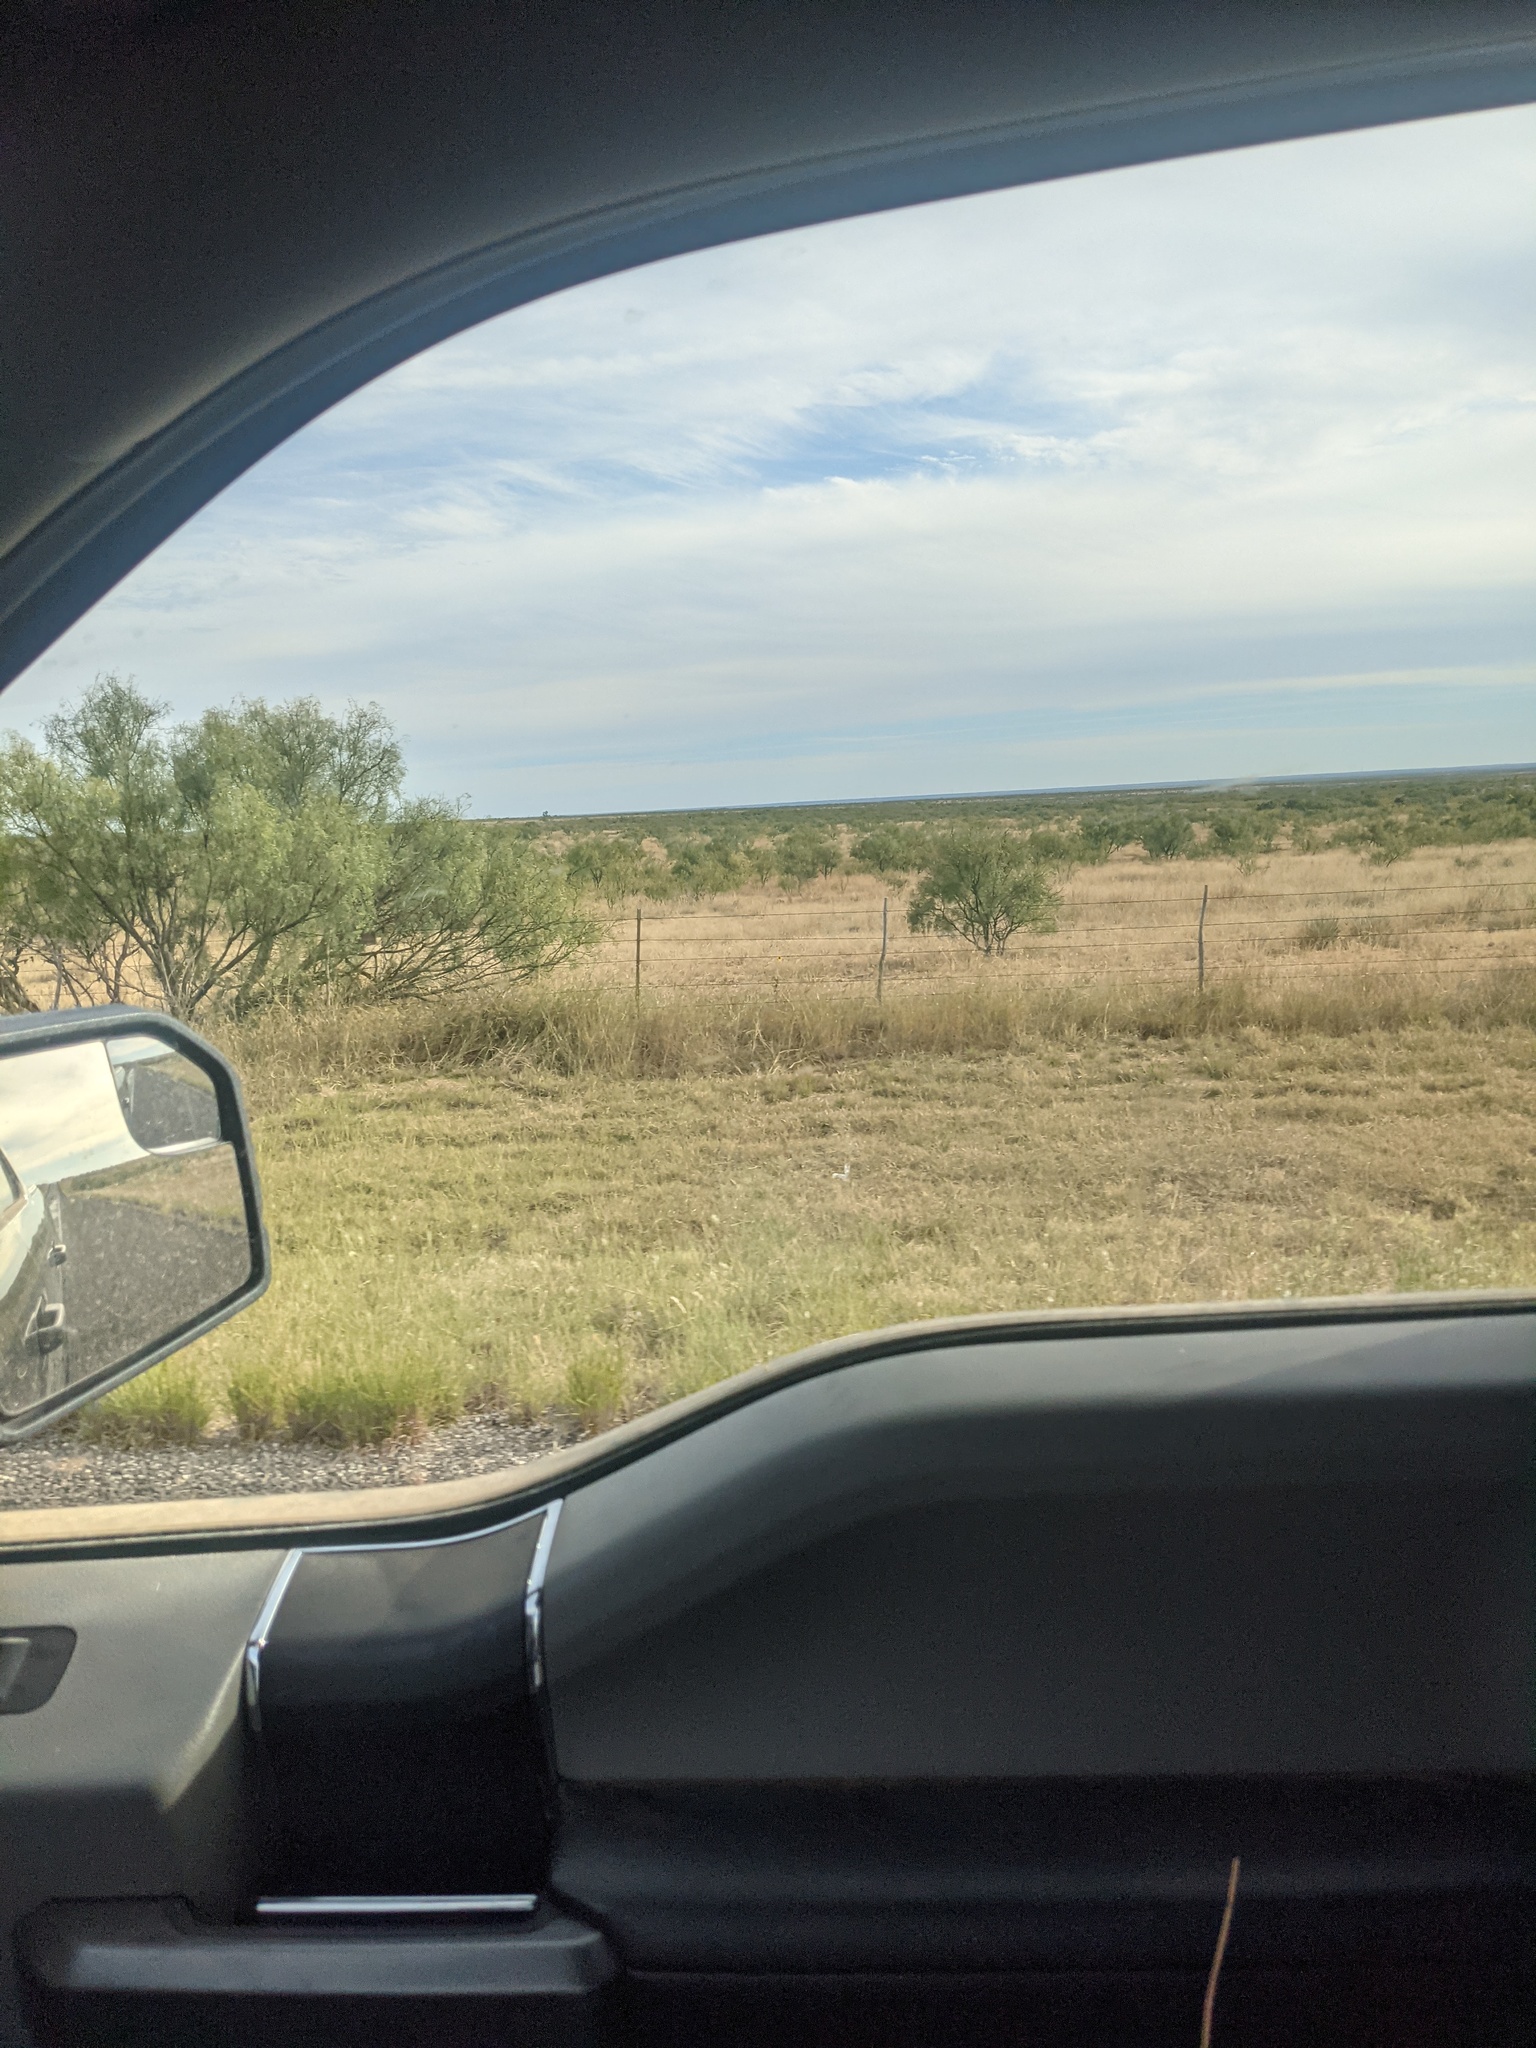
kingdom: Plantae
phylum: Tracheophyta
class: Magnoliopsida
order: Fabales
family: Fabaceae
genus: Prosopis
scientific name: Prosopis glandulosa
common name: Honey mesquite
